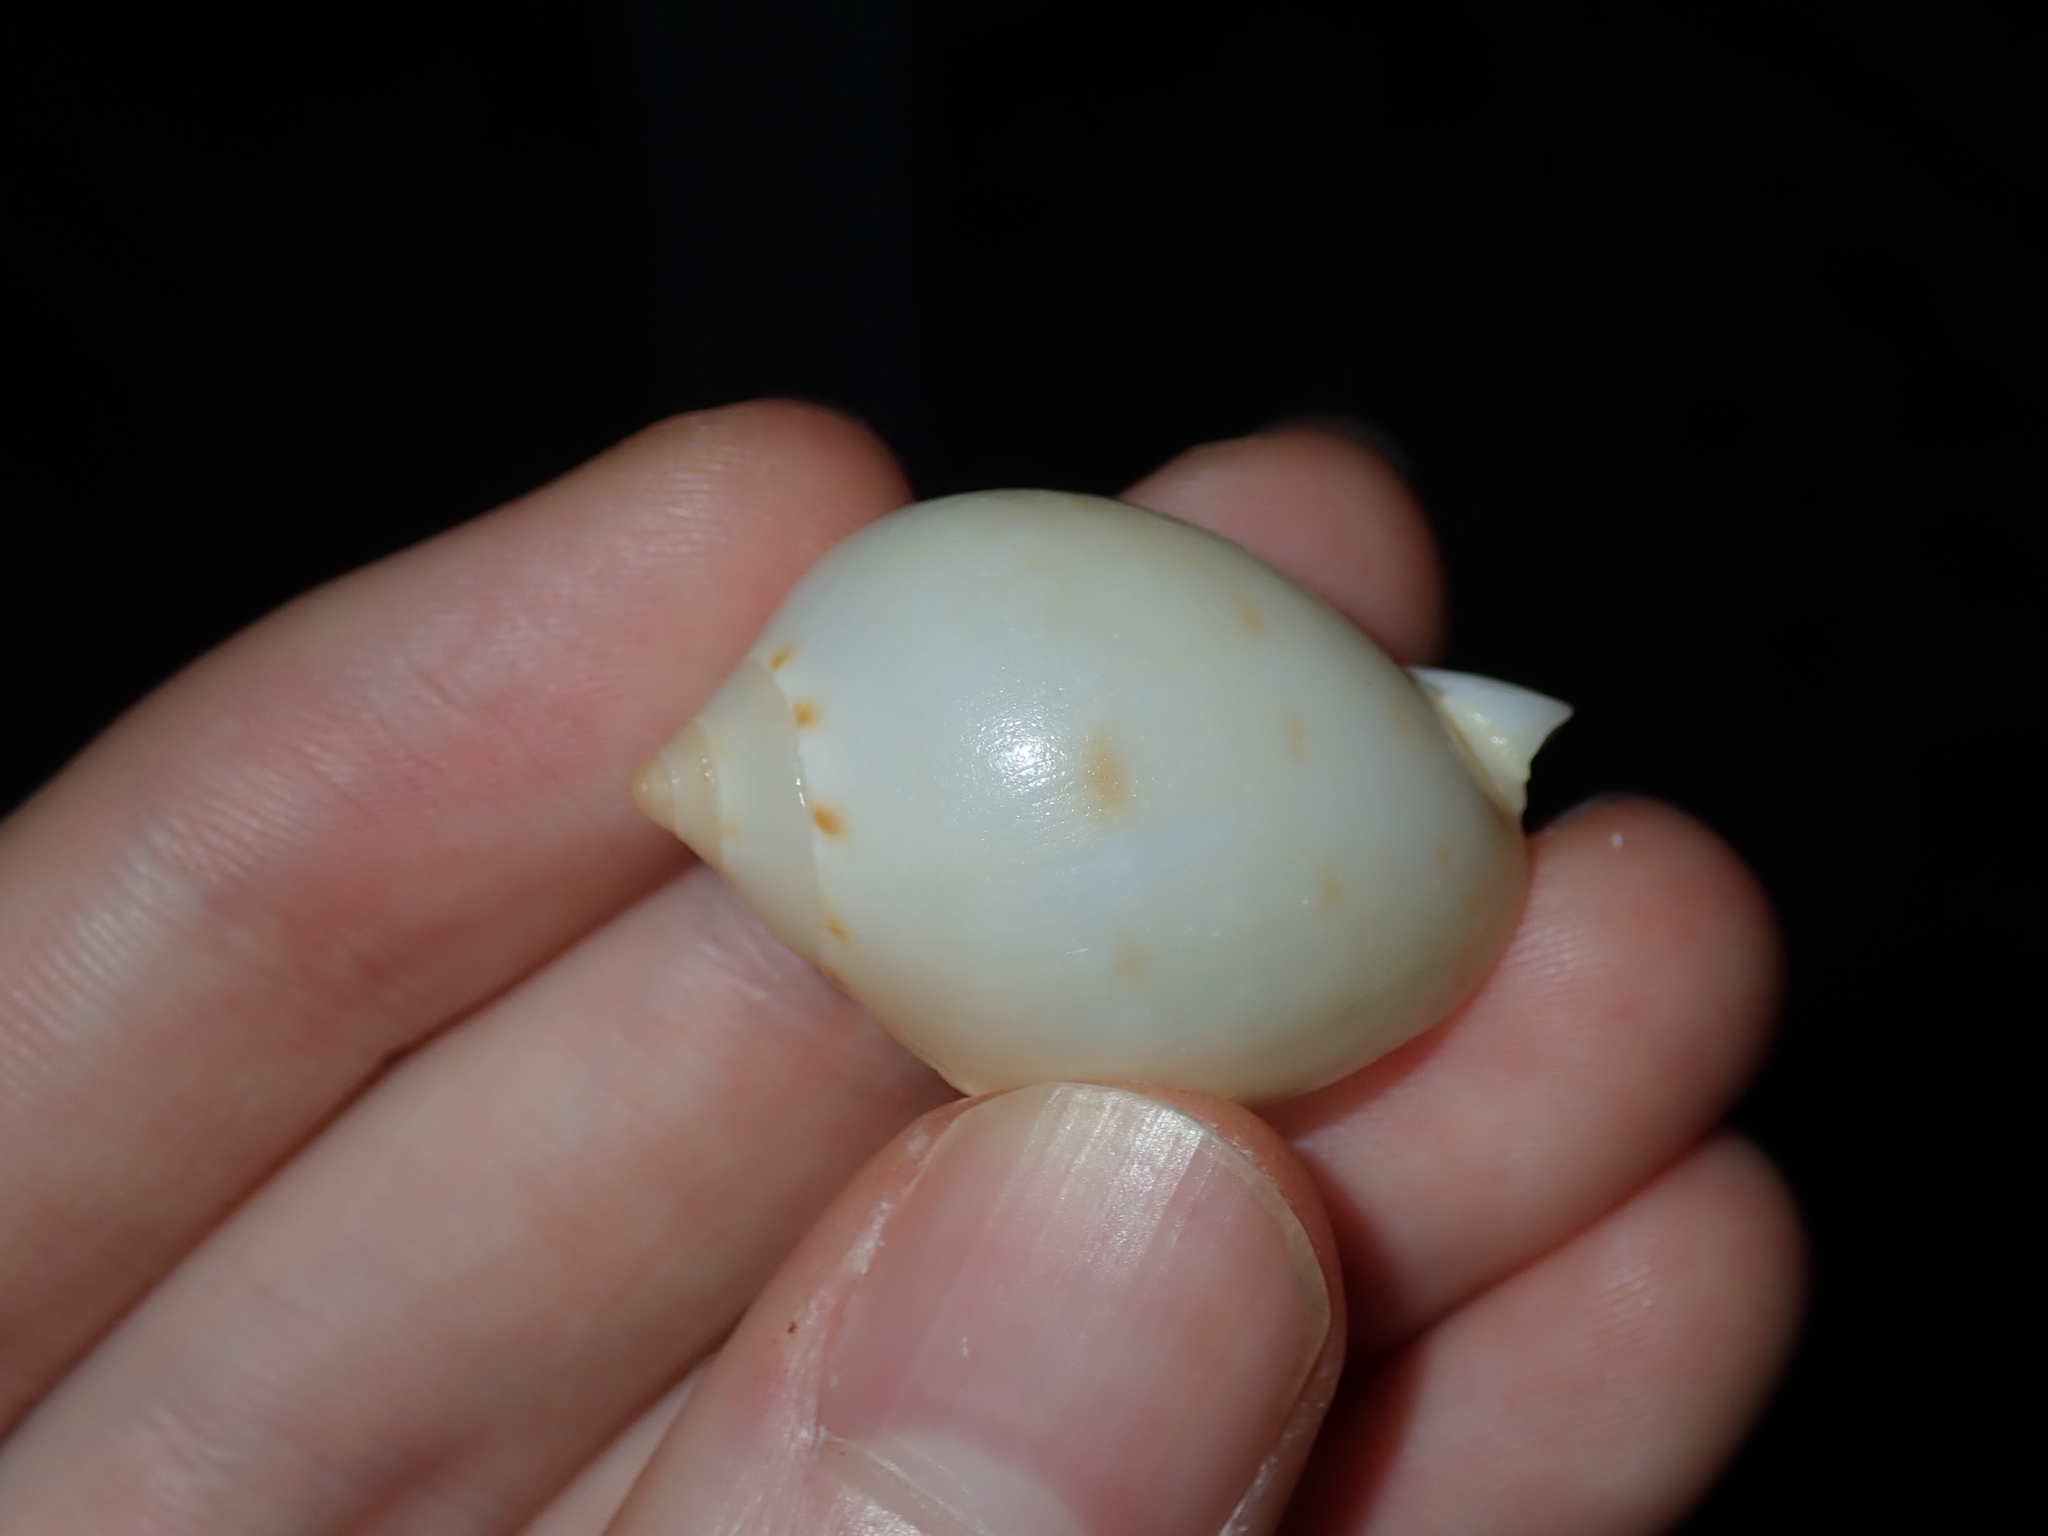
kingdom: Animalia
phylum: Mollusca
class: Gastropoda
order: Littorinimorpha
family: Cassidae
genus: Semicassis
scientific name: Semicassis labiata
